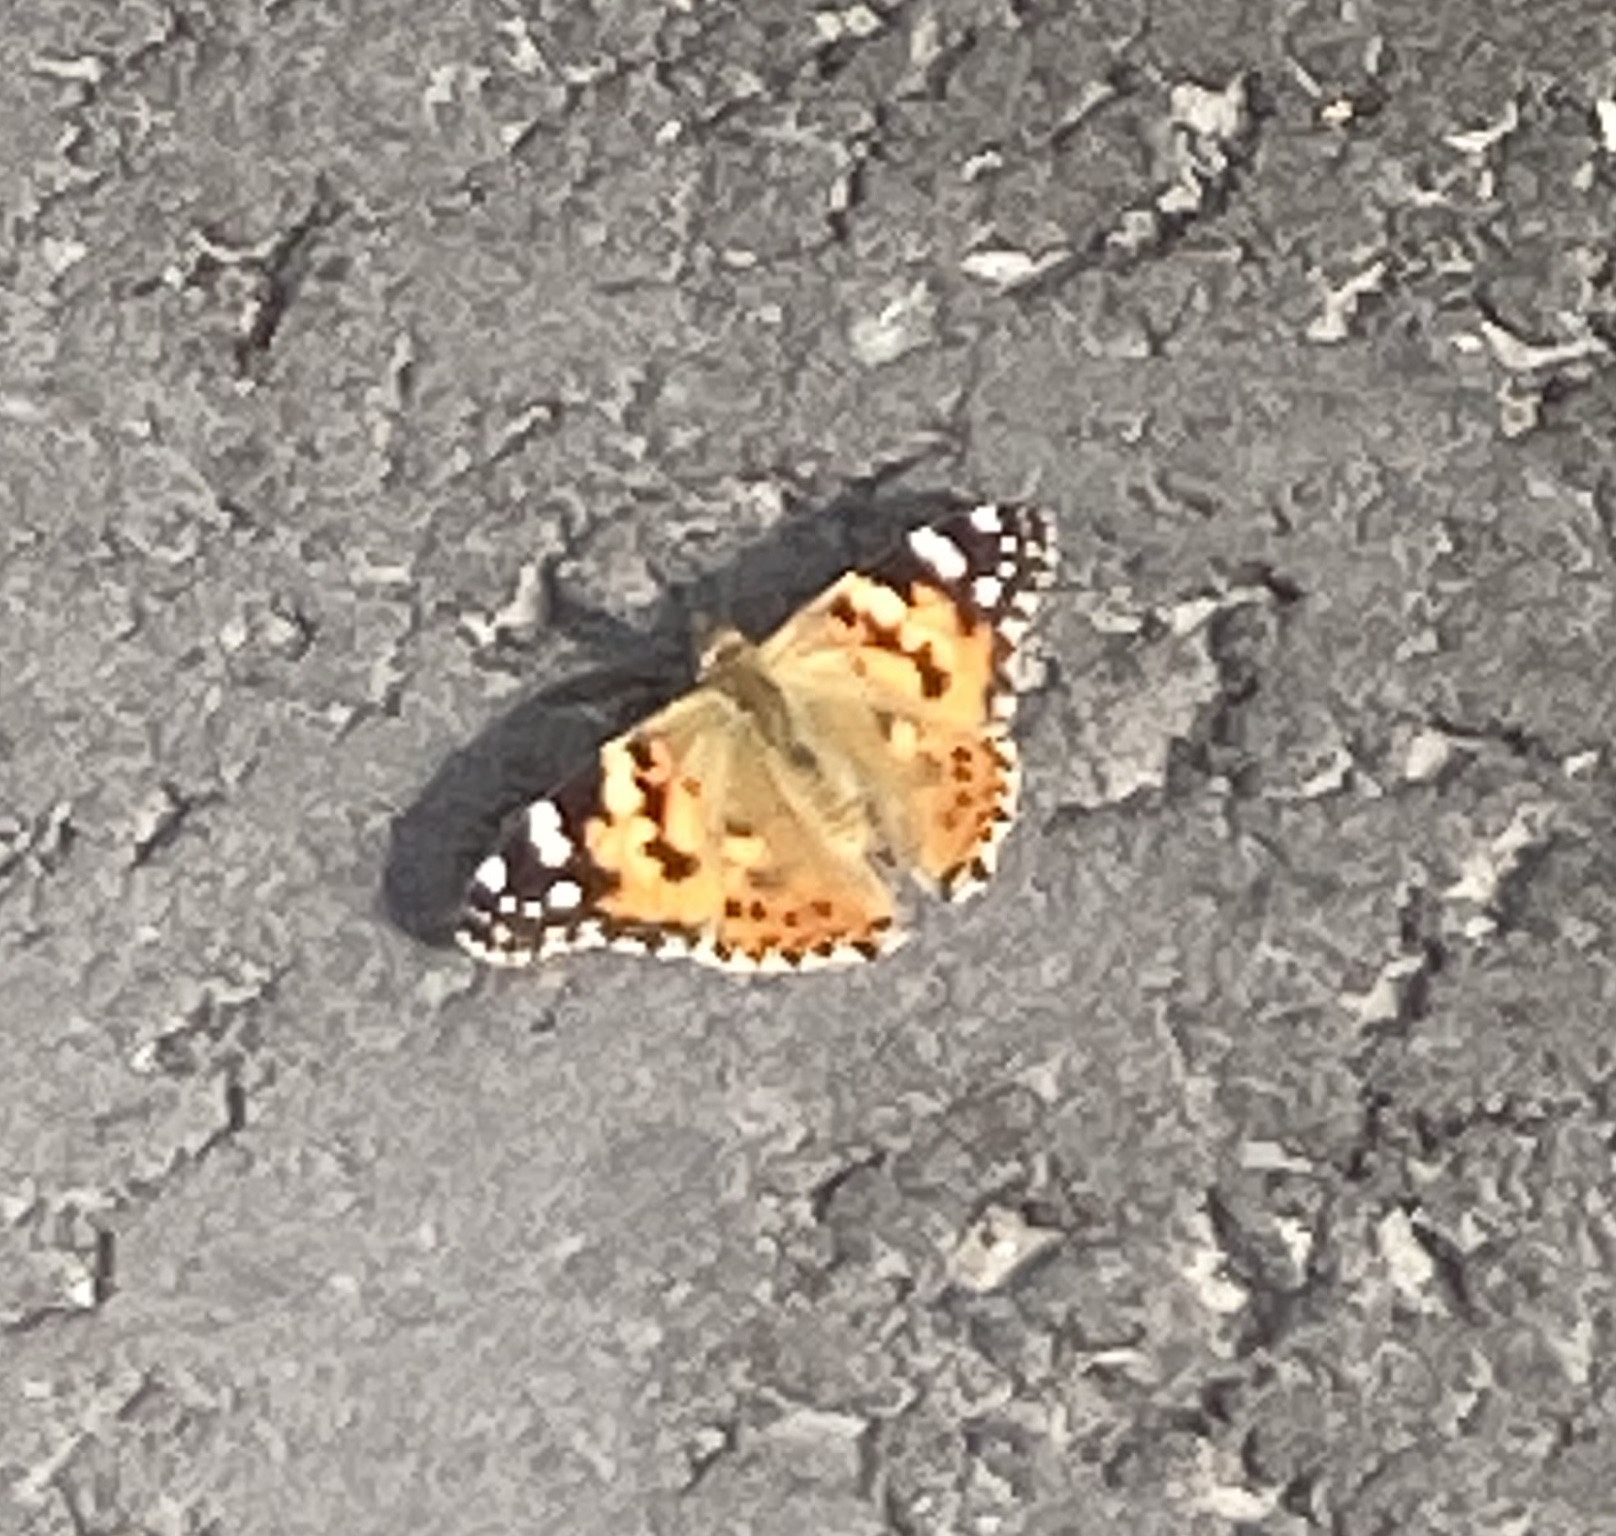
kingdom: Animalia
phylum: Arthropoda
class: Insecta
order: Lepidoptera
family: Nymphalidae
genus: Vanessa
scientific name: Vanessa cardui
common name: Painted lady
